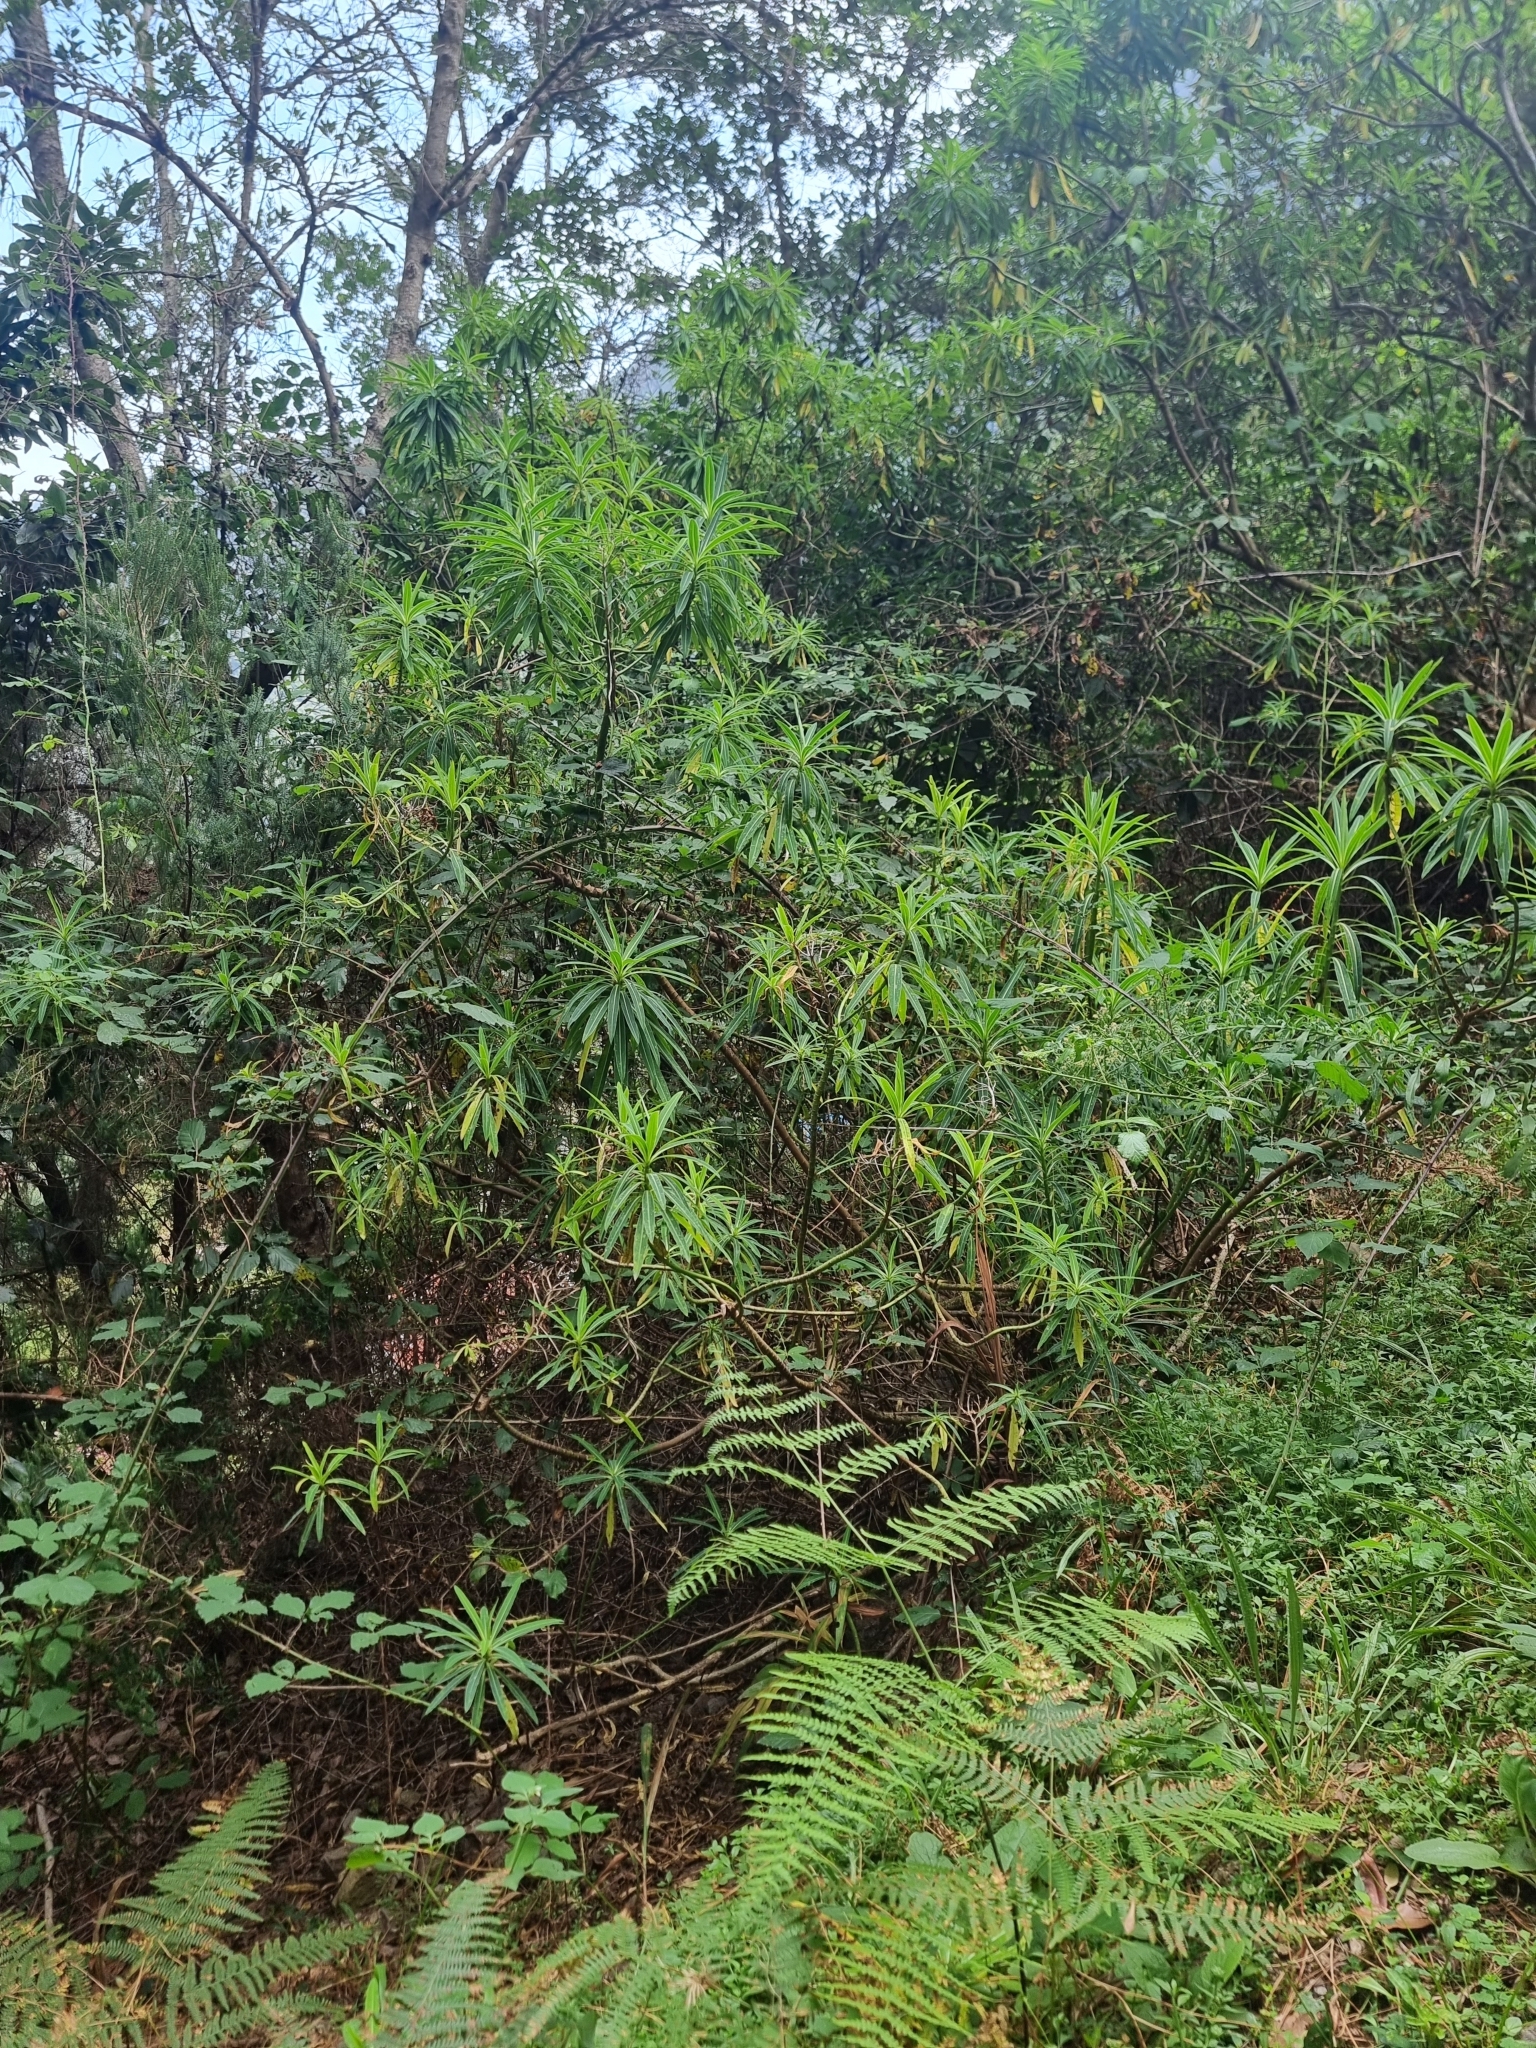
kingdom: Plantae
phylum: Tracheophyta
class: Magnoliopsida
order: Malpighiales
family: Euphorbiaceae
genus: Euphorbia
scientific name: Euphorbia mellifera
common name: Canary spurge
